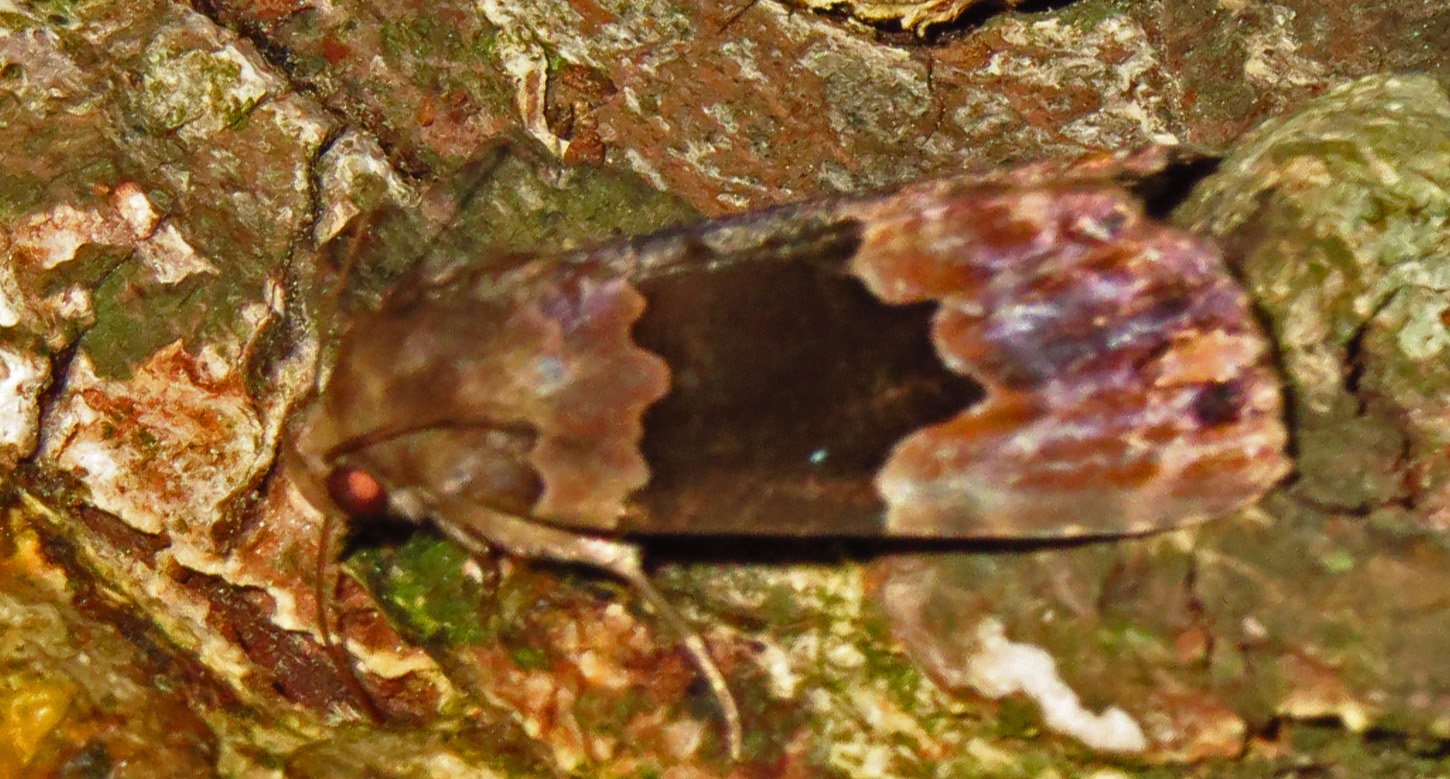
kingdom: Animalia
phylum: Arthropoda
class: Insecta
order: Lepidoptera
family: Erebidae
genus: Dinumma
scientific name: Dinumma deponens
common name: Purplish moth
